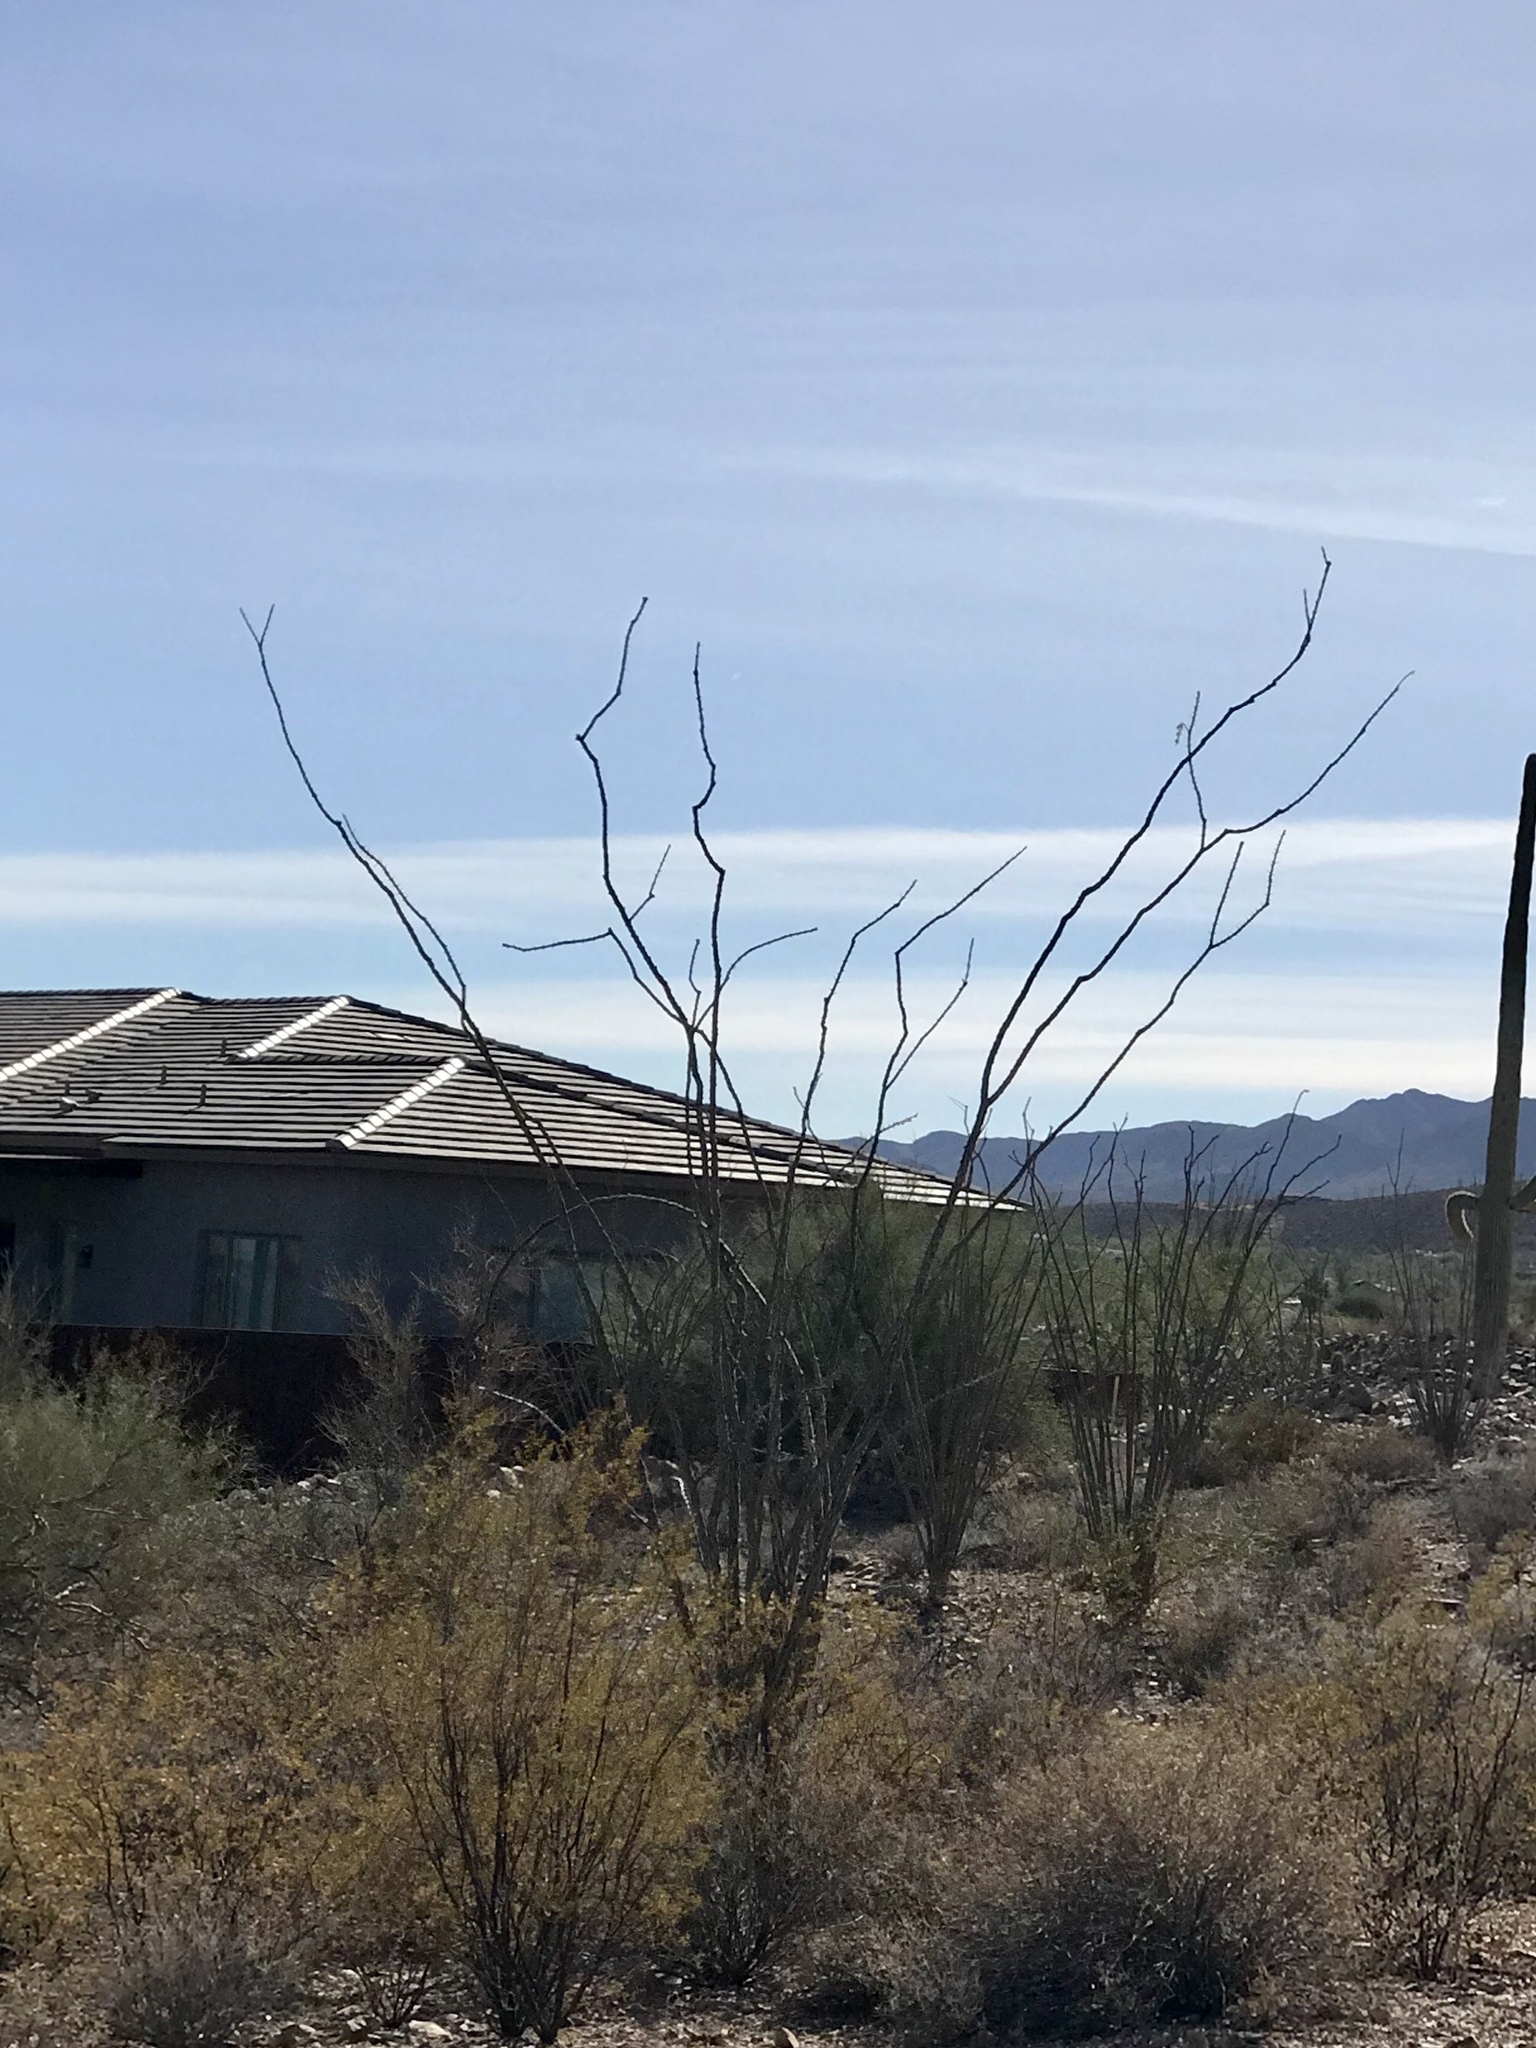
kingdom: Plantae
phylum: Tracheophyta
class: Magnoliopsida
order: Ericales
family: Fouquieriaceae
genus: Fouquieria
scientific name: Fouquieria splendens
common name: Vine-cactus
